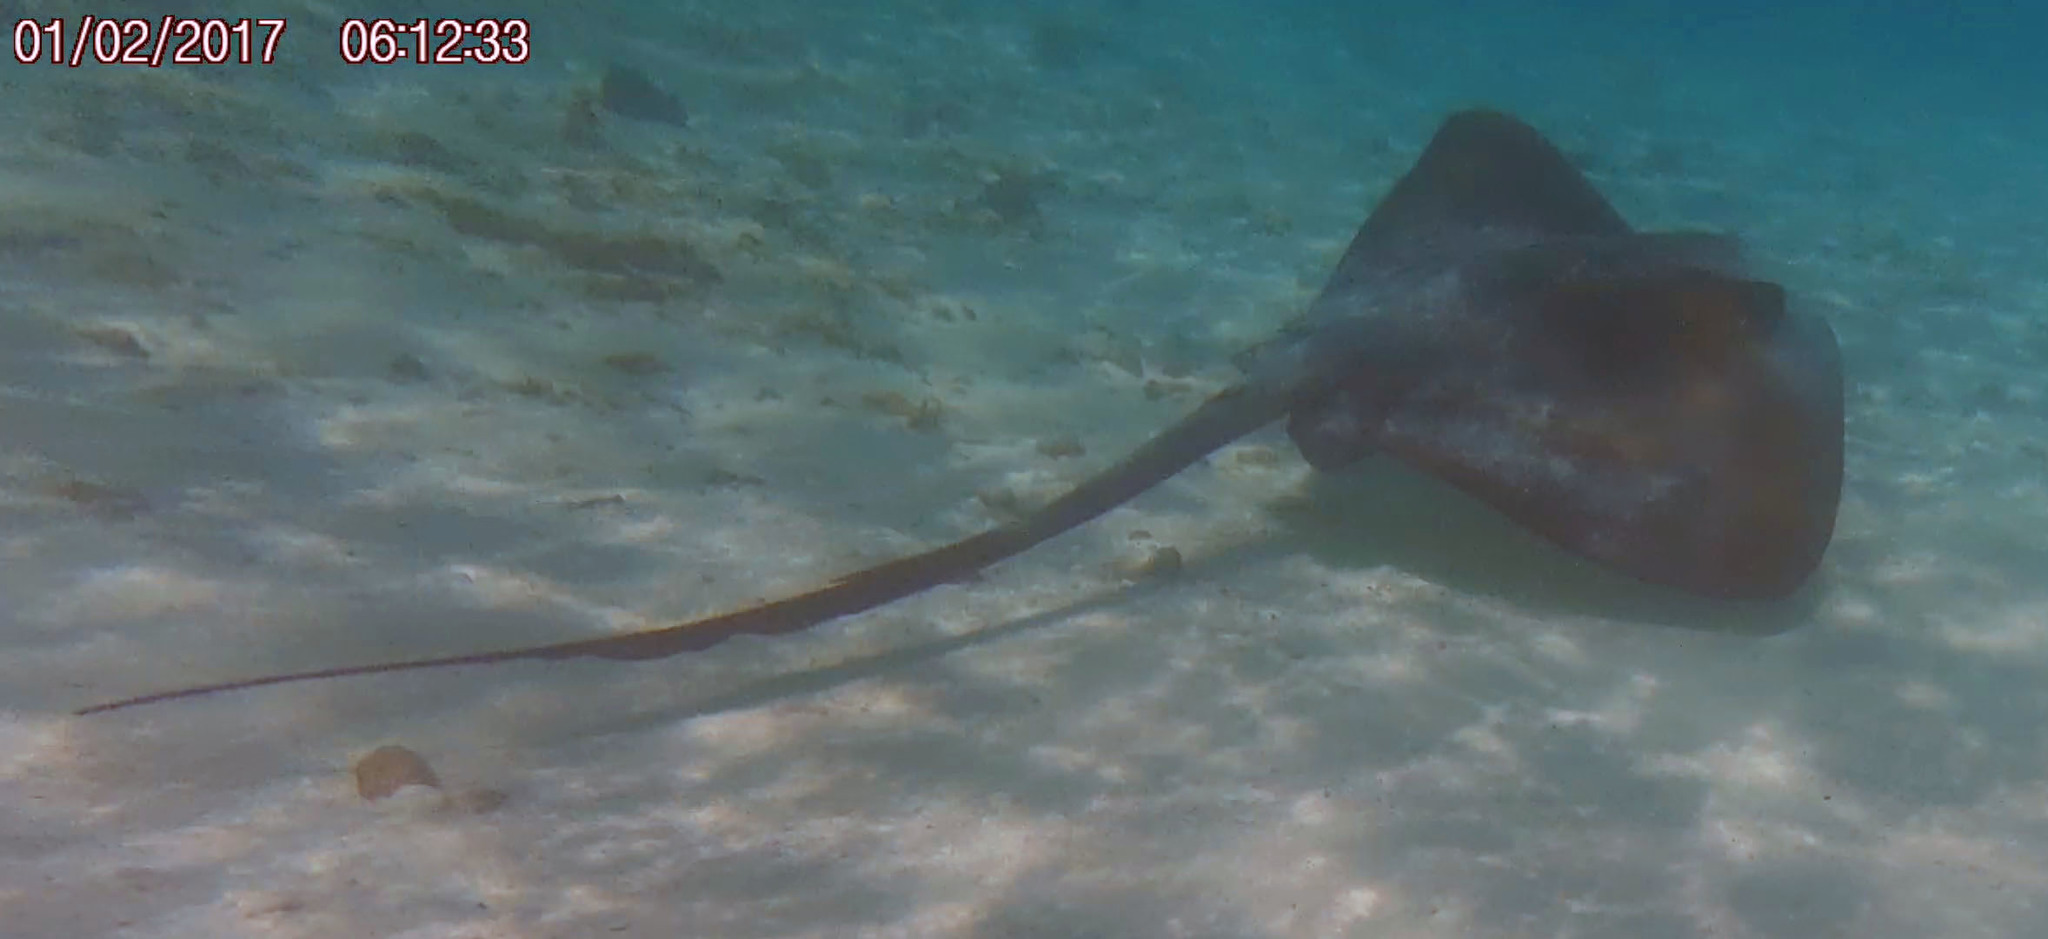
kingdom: Animalia
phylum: Chordata
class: Elasmobranchii
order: Myliobatiformes
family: Dasyatidae
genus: Pastinachus
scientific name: Pastinachus ater
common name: Banana-tail ray
